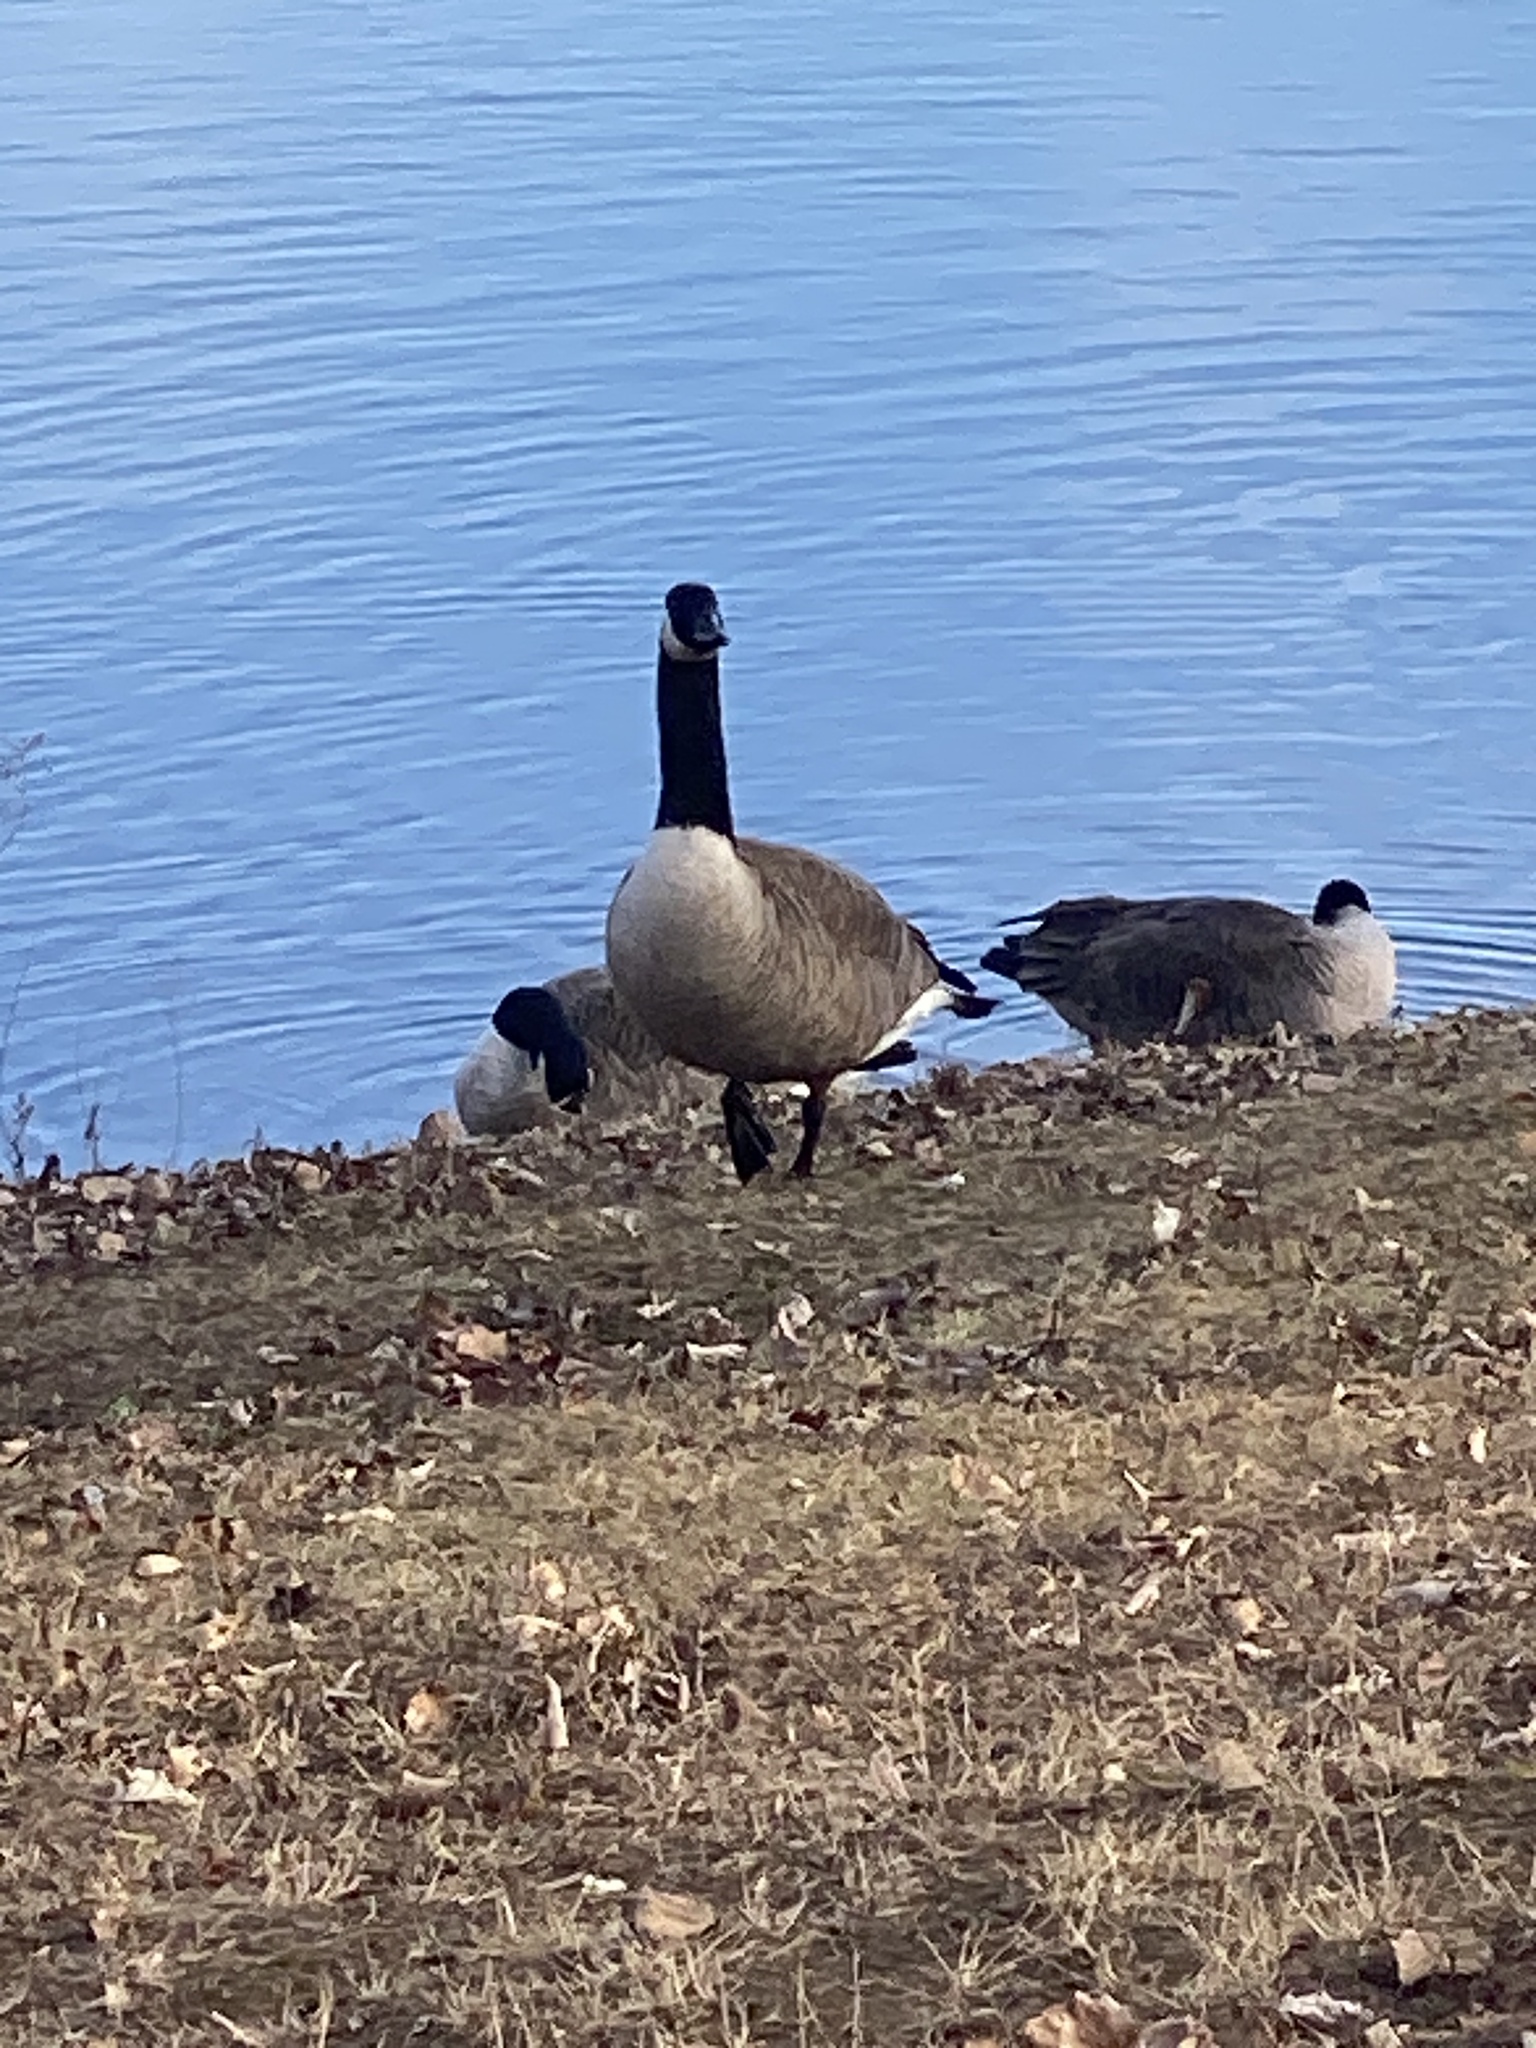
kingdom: Animalia
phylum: Chordata
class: Aves
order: Anseriformes
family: Anatidae
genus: Branta
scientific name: Branta canadensis
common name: Canada goose
